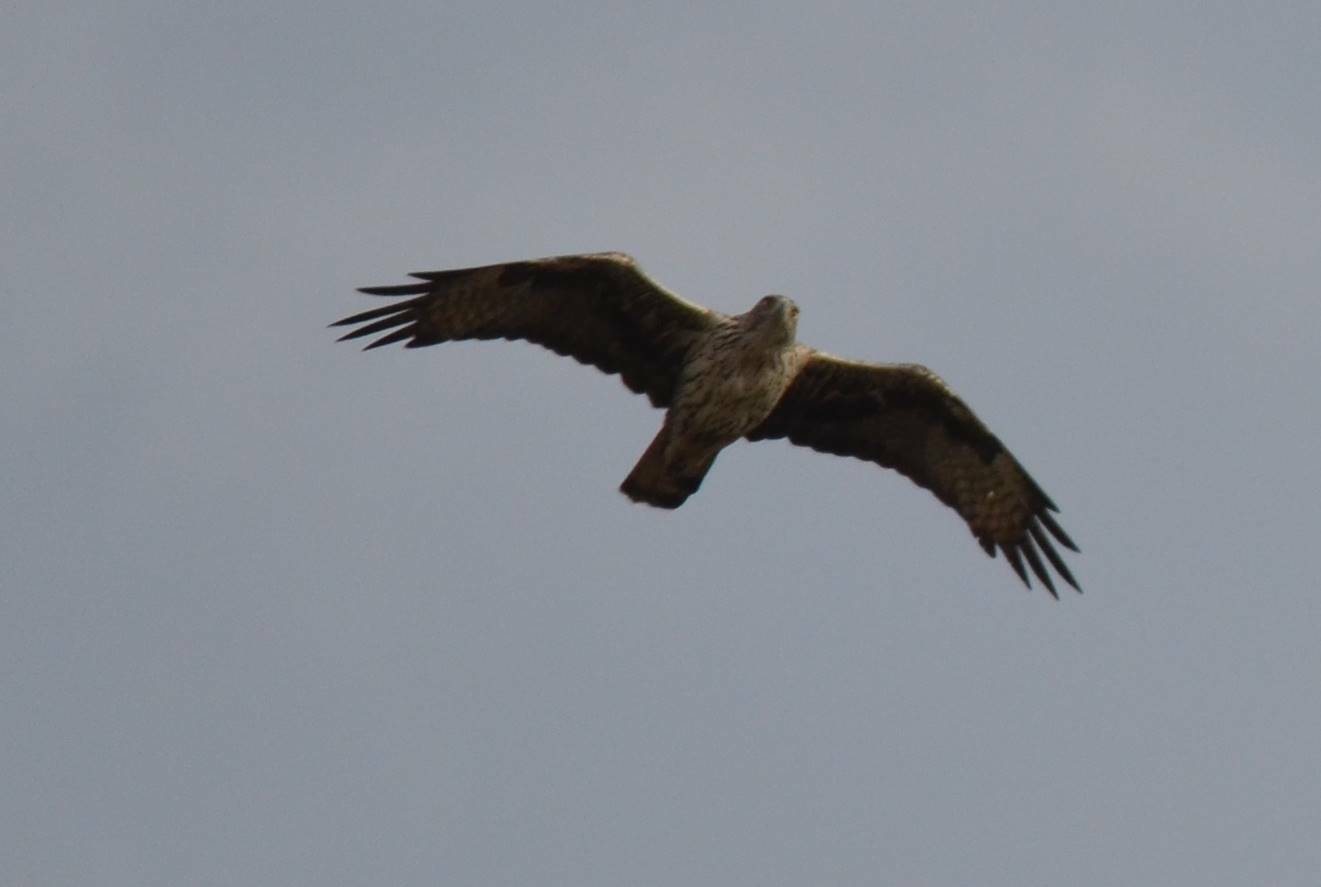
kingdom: Animalia
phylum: Chordata
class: Aves
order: Accipitriformes
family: Accipitridae
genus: Aquila
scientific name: Aquila fasciata
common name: Bonelli's eagle
